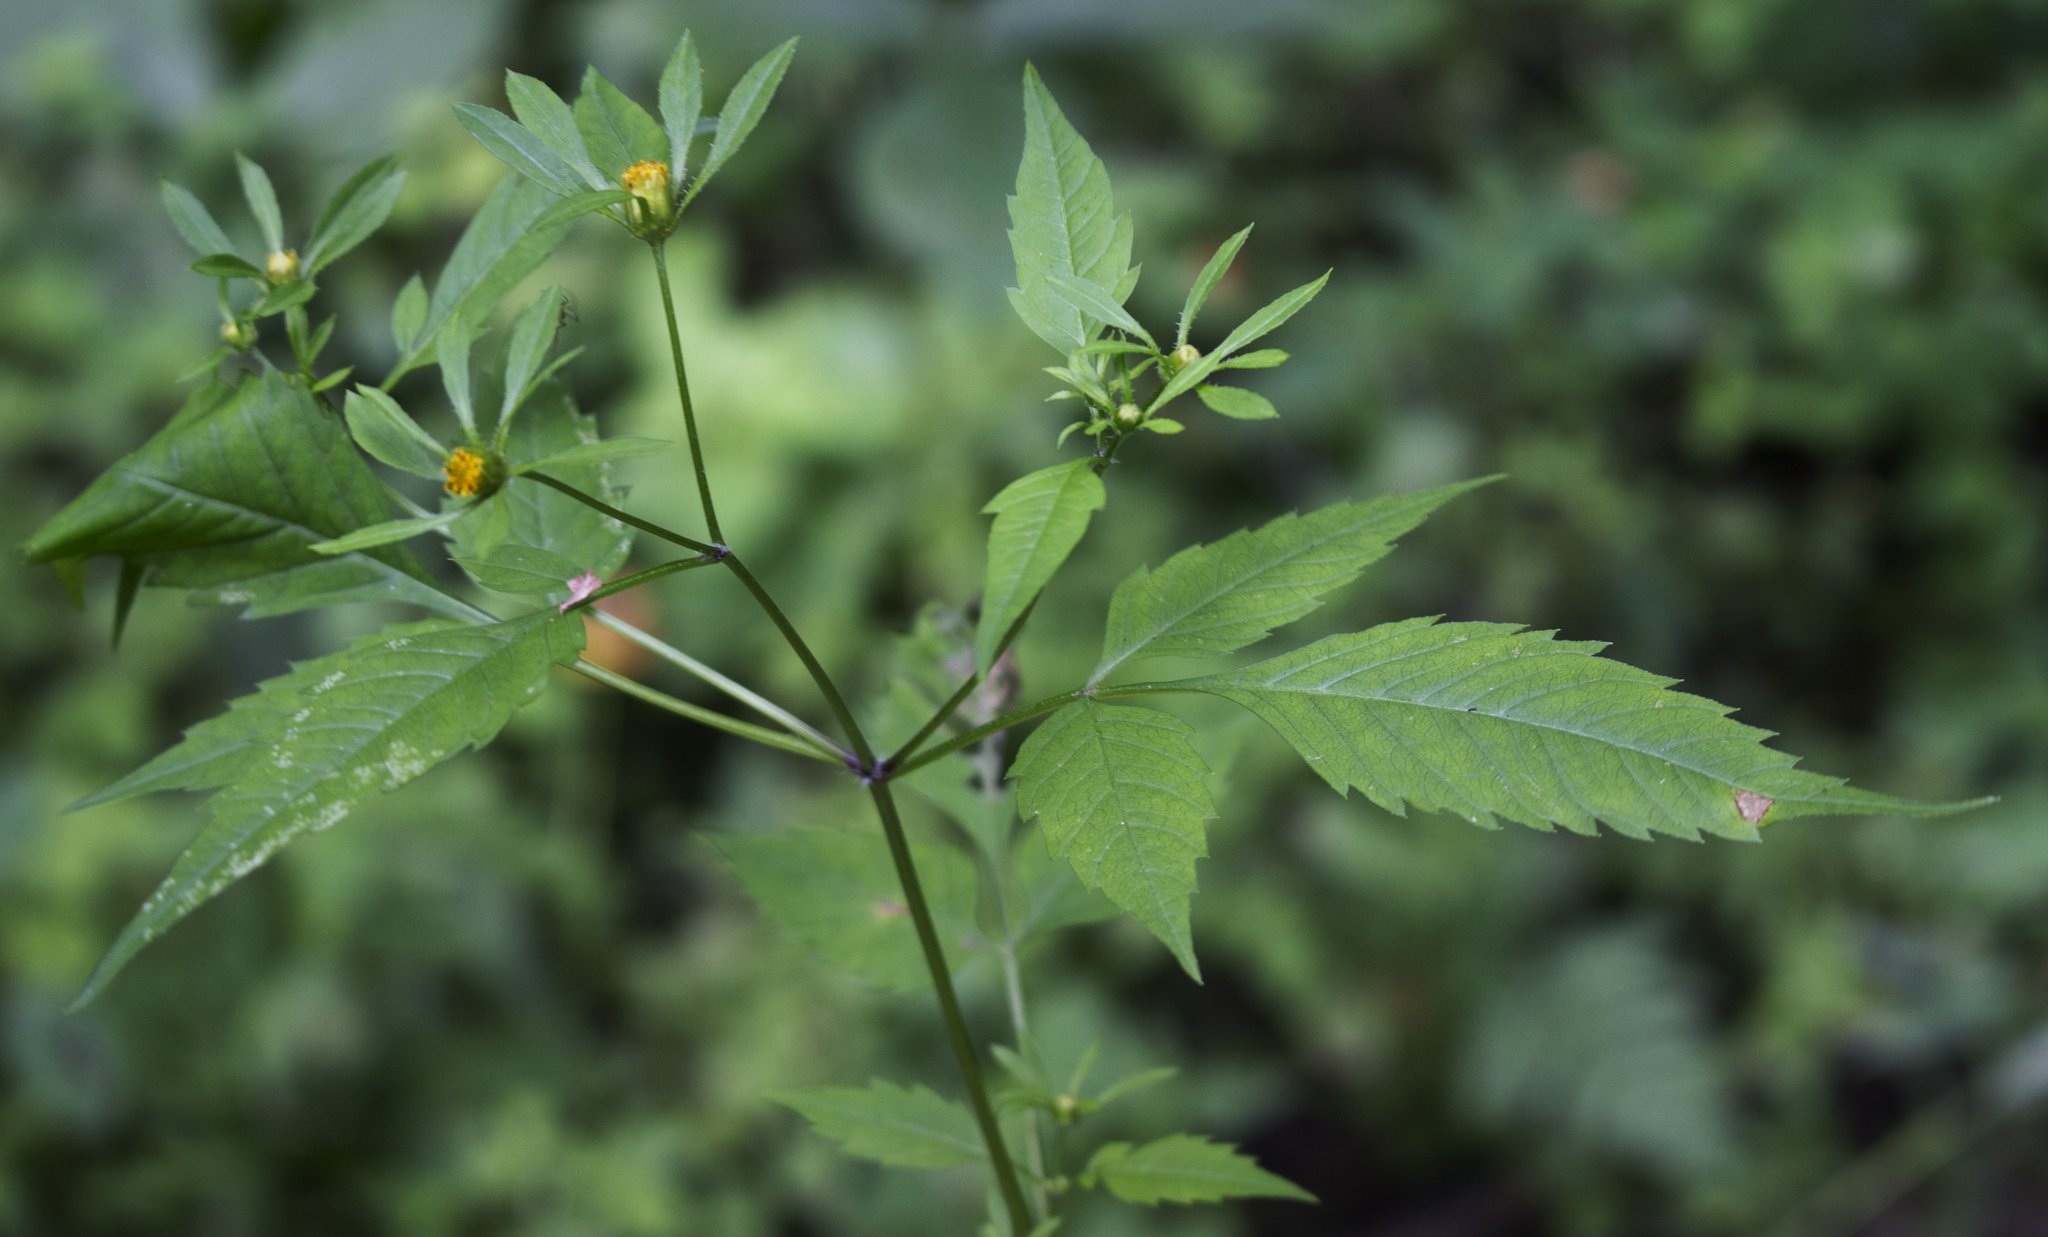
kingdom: Plantae
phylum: Tracheophyta
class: Magnoliopsida
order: Asterales
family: Asteraceae
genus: Bidens
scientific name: Bidens frondosa
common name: Beggarticks
